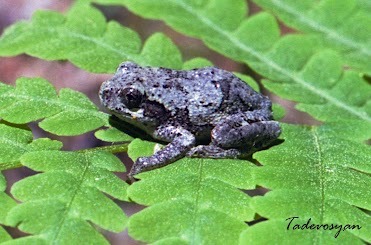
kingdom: Animalia
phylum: Chordata
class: Amphibia
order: Anura
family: Hylidae
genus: Dryophytes
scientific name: Dryophytes versicolor
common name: Gray treefrog
